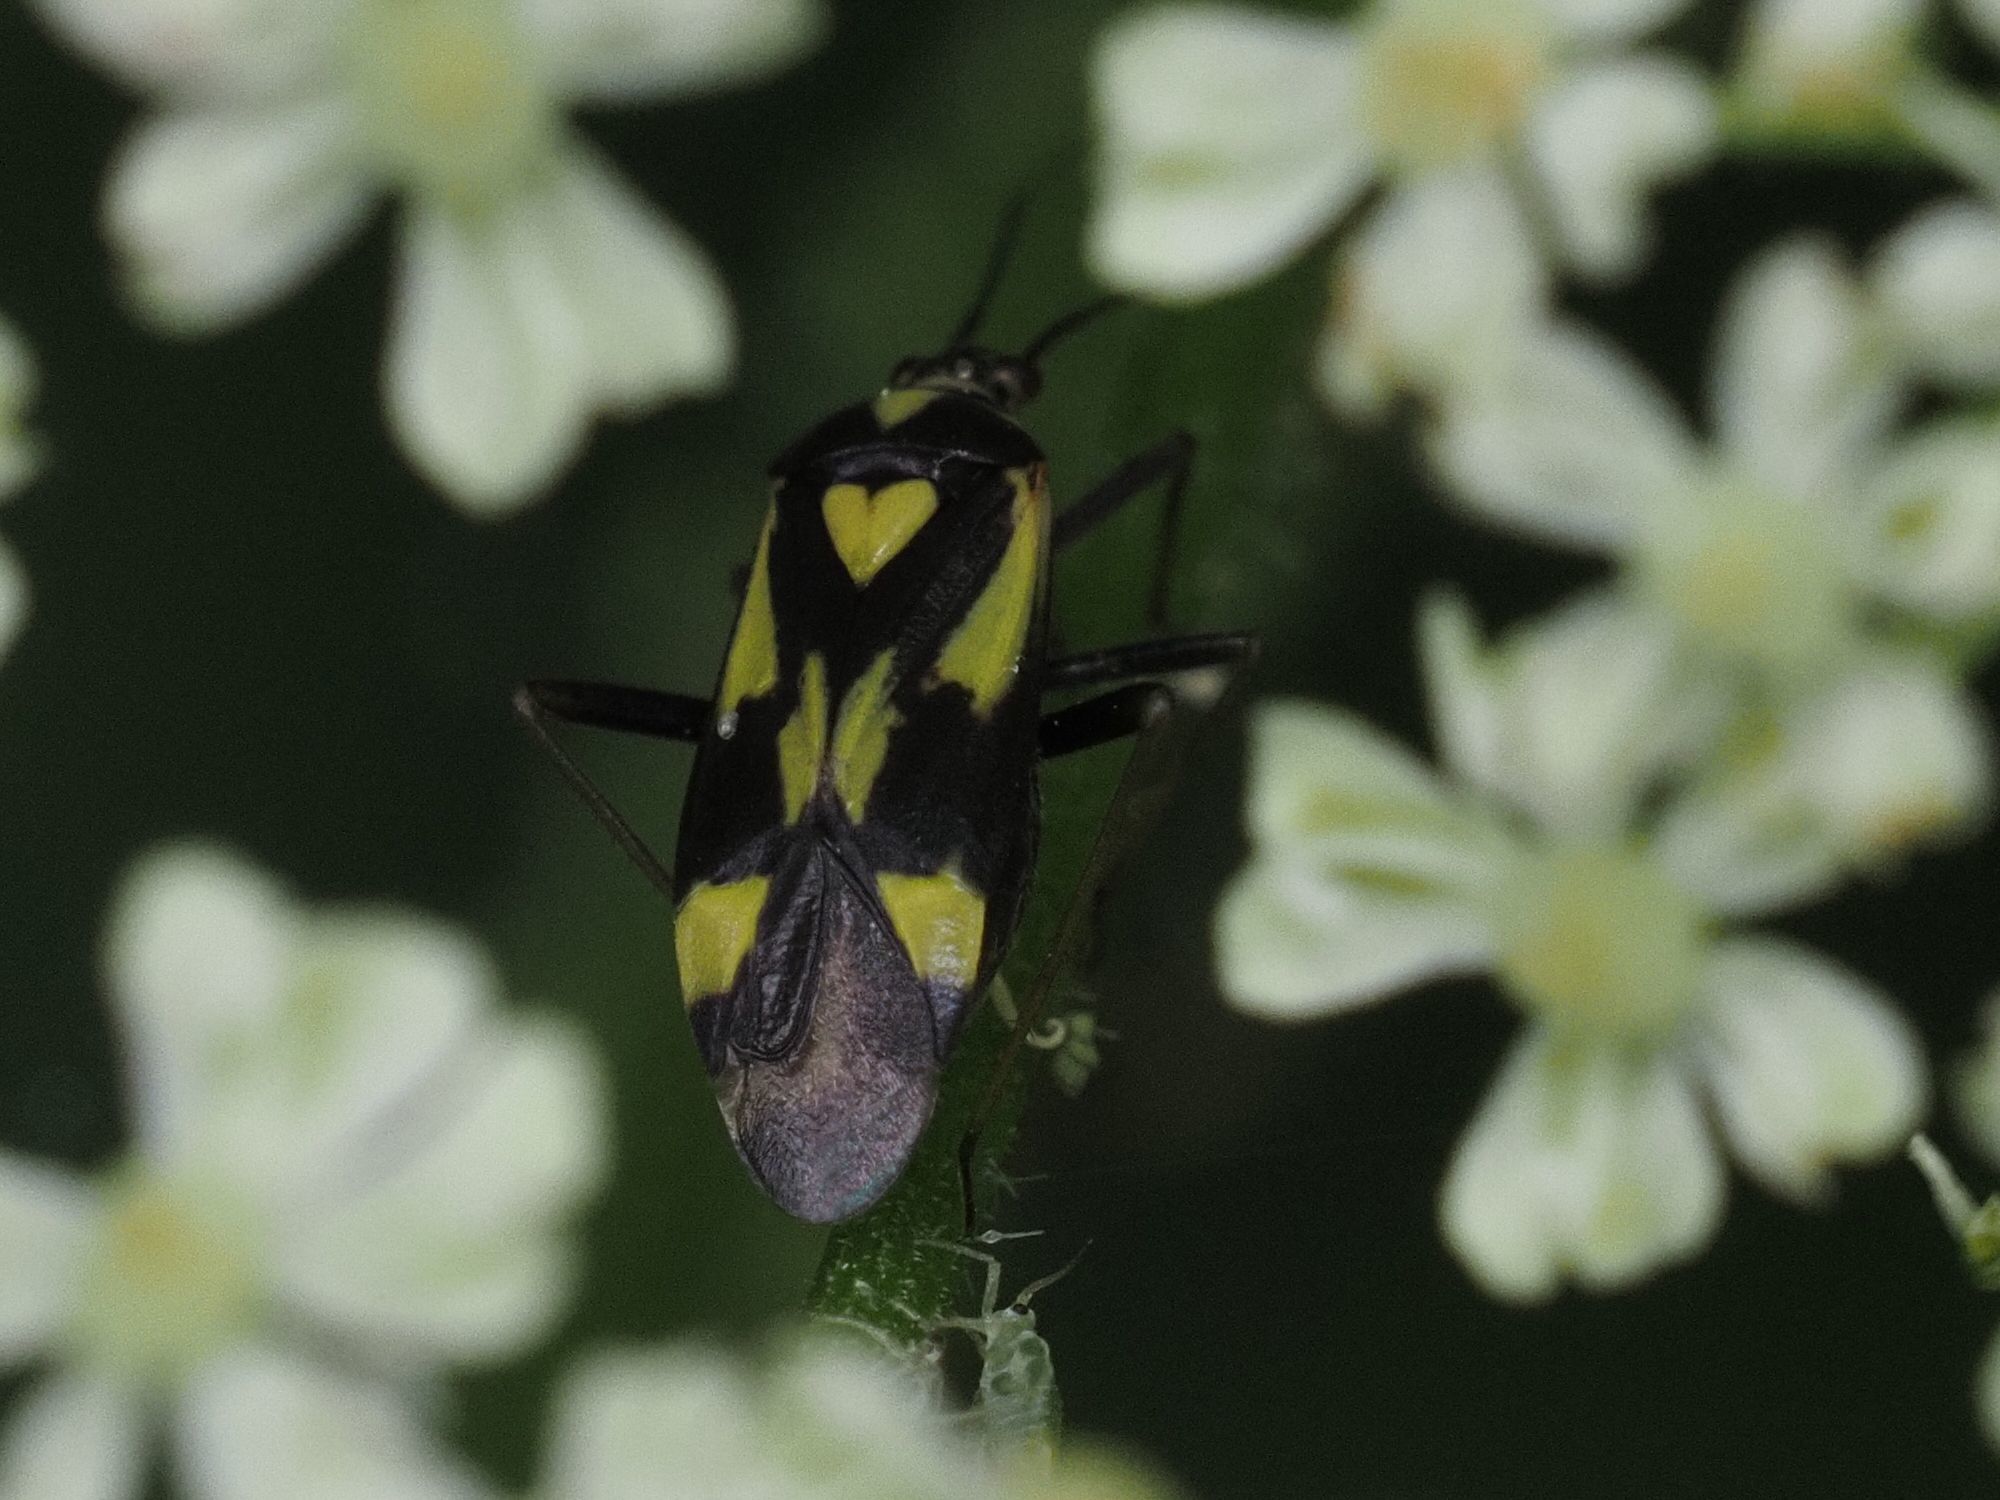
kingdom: Animalia
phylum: Arthropoda
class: Insecta
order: Hemiptera
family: Miridae
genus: Grypocoris
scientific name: Grypocoris sexguttatus
